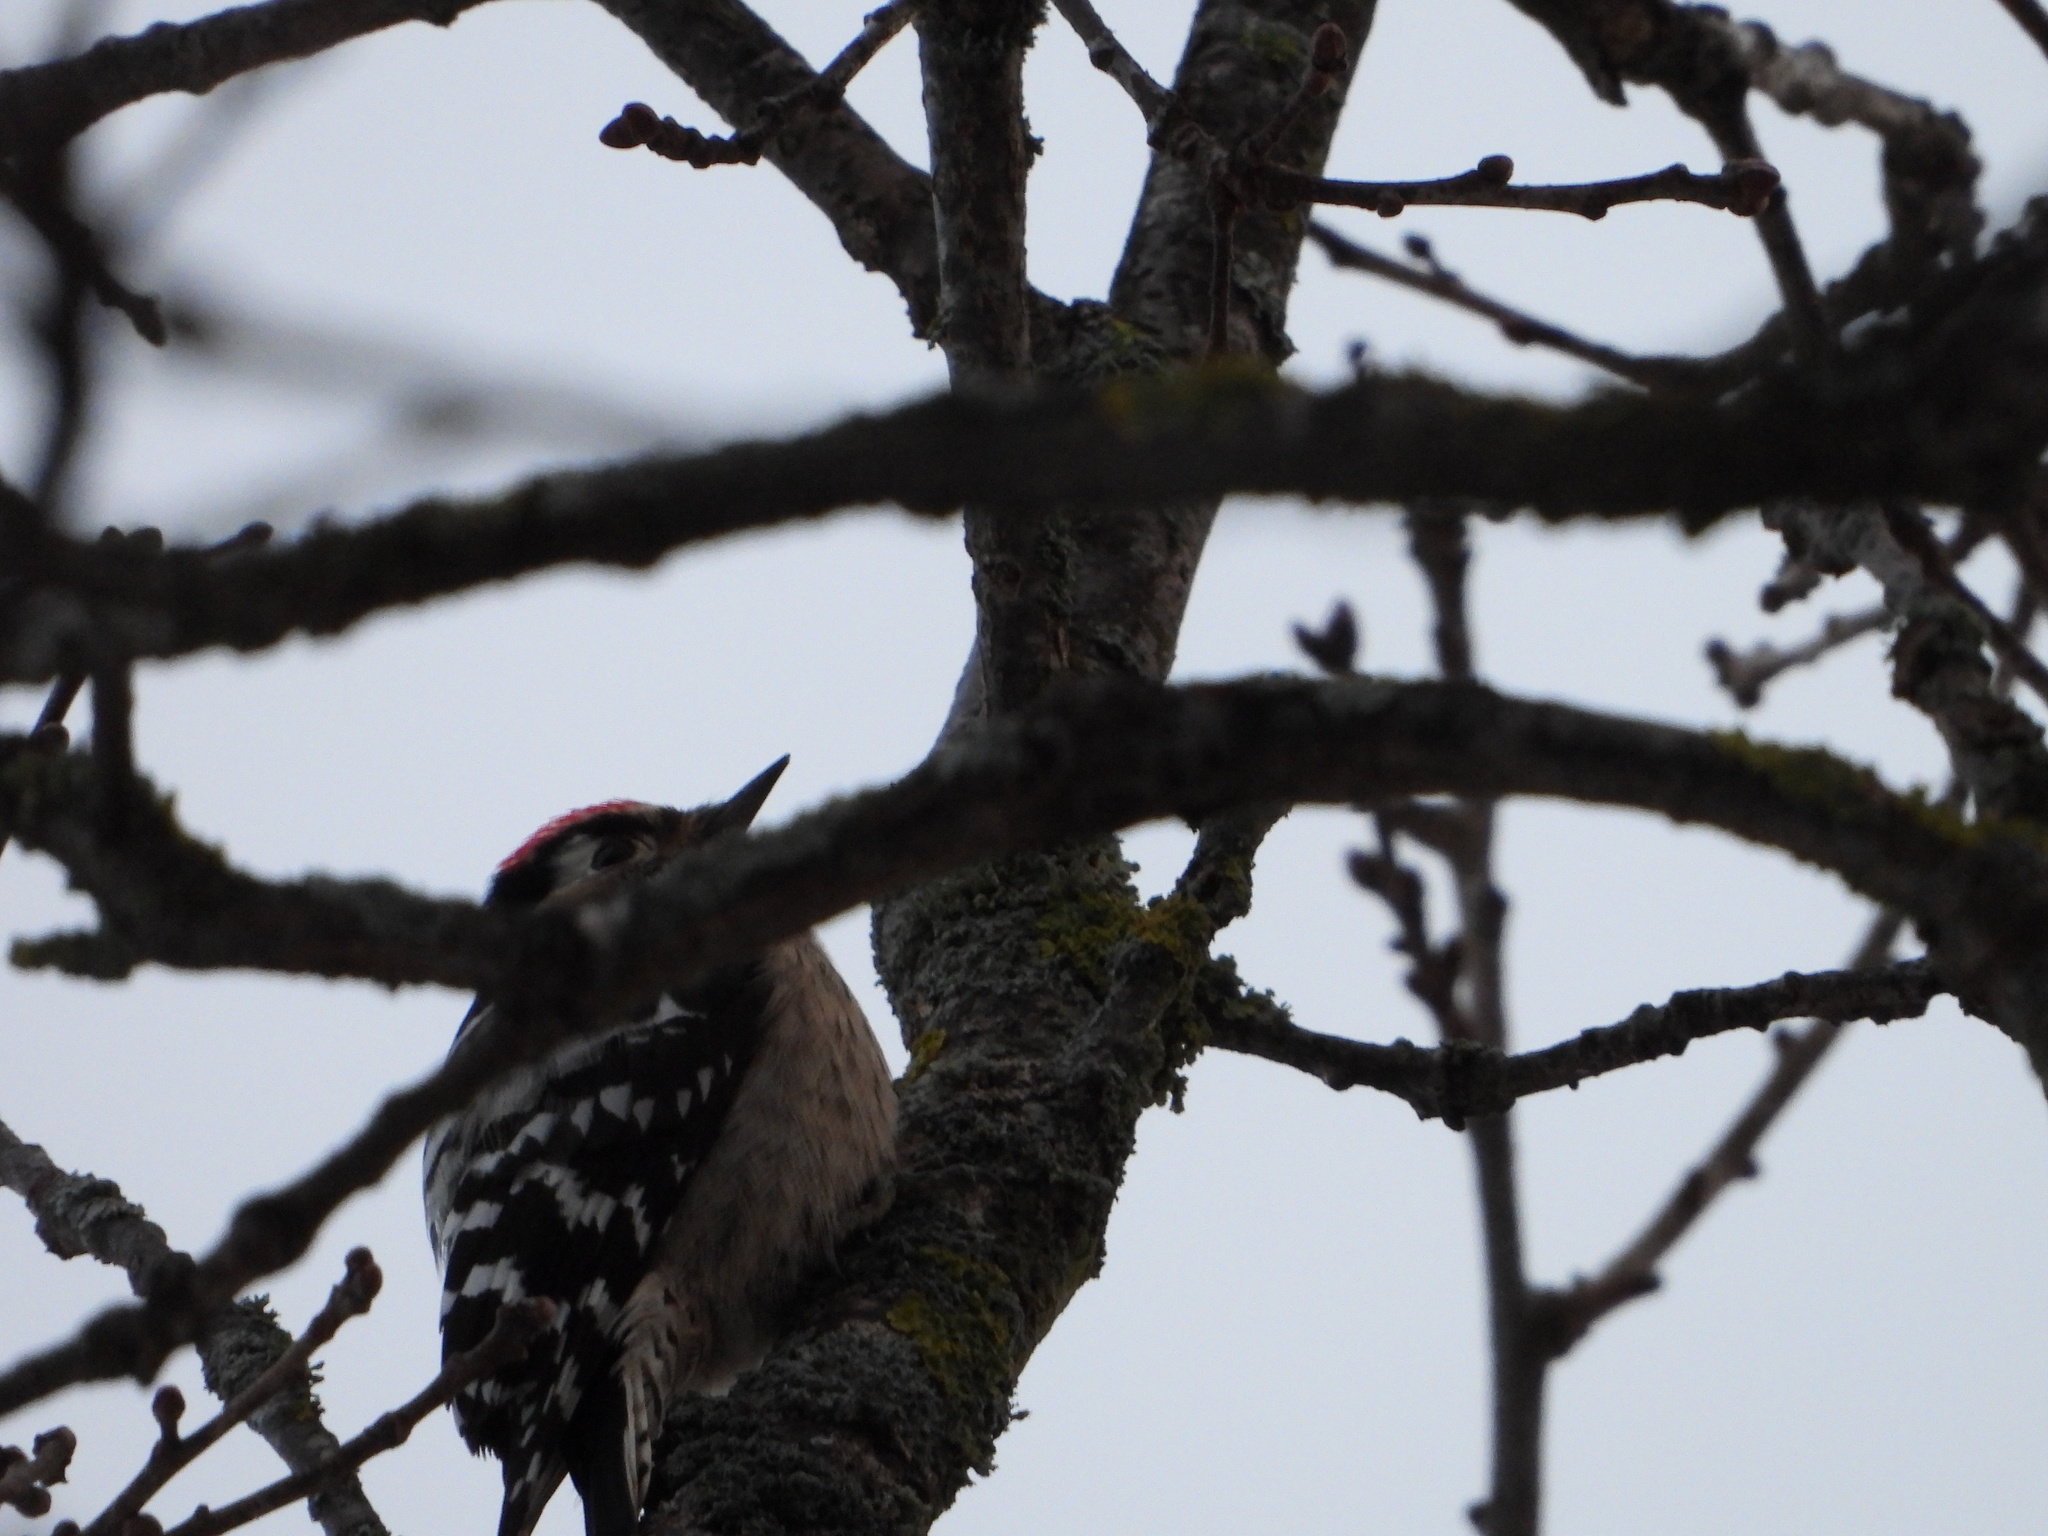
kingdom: Animalia
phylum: Chordata
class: Aves
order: Piciformes
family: Picidae
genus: Dryobates
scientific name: Dryobates minor
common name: Lesser spotted woodpecker
